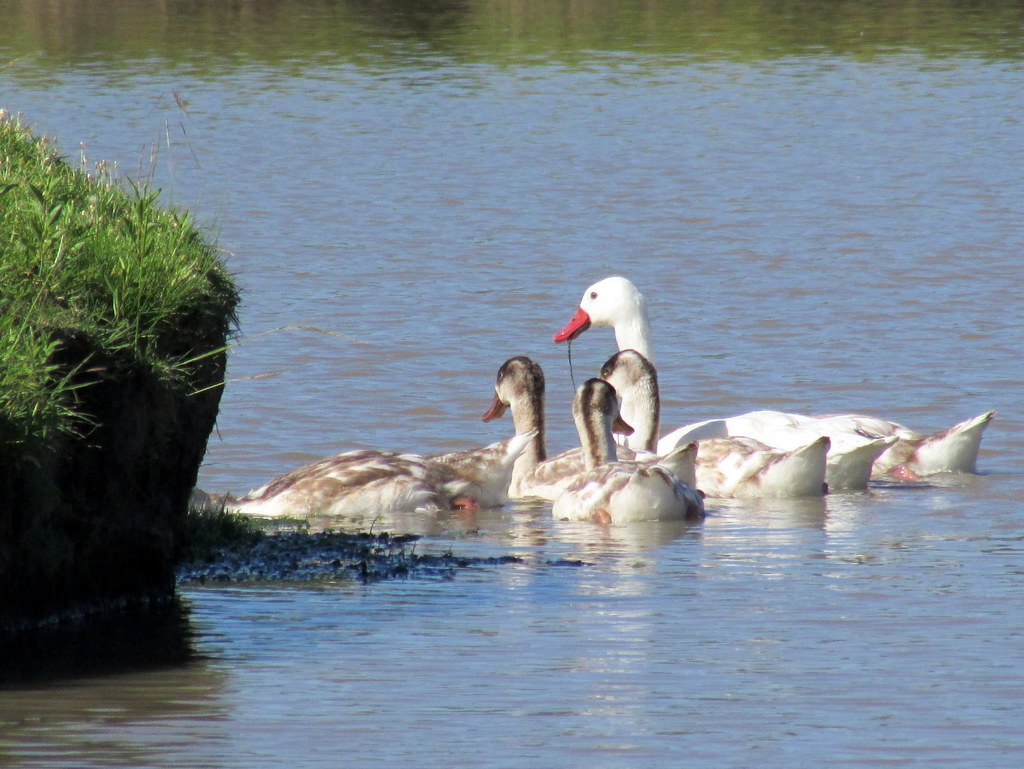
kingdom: Animalia
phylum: Chordata
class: Aves
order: Anseriformes
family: Anatidae
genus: Coscoroba
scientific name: Coscoroba coscoroba
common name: Coscoroba swan
